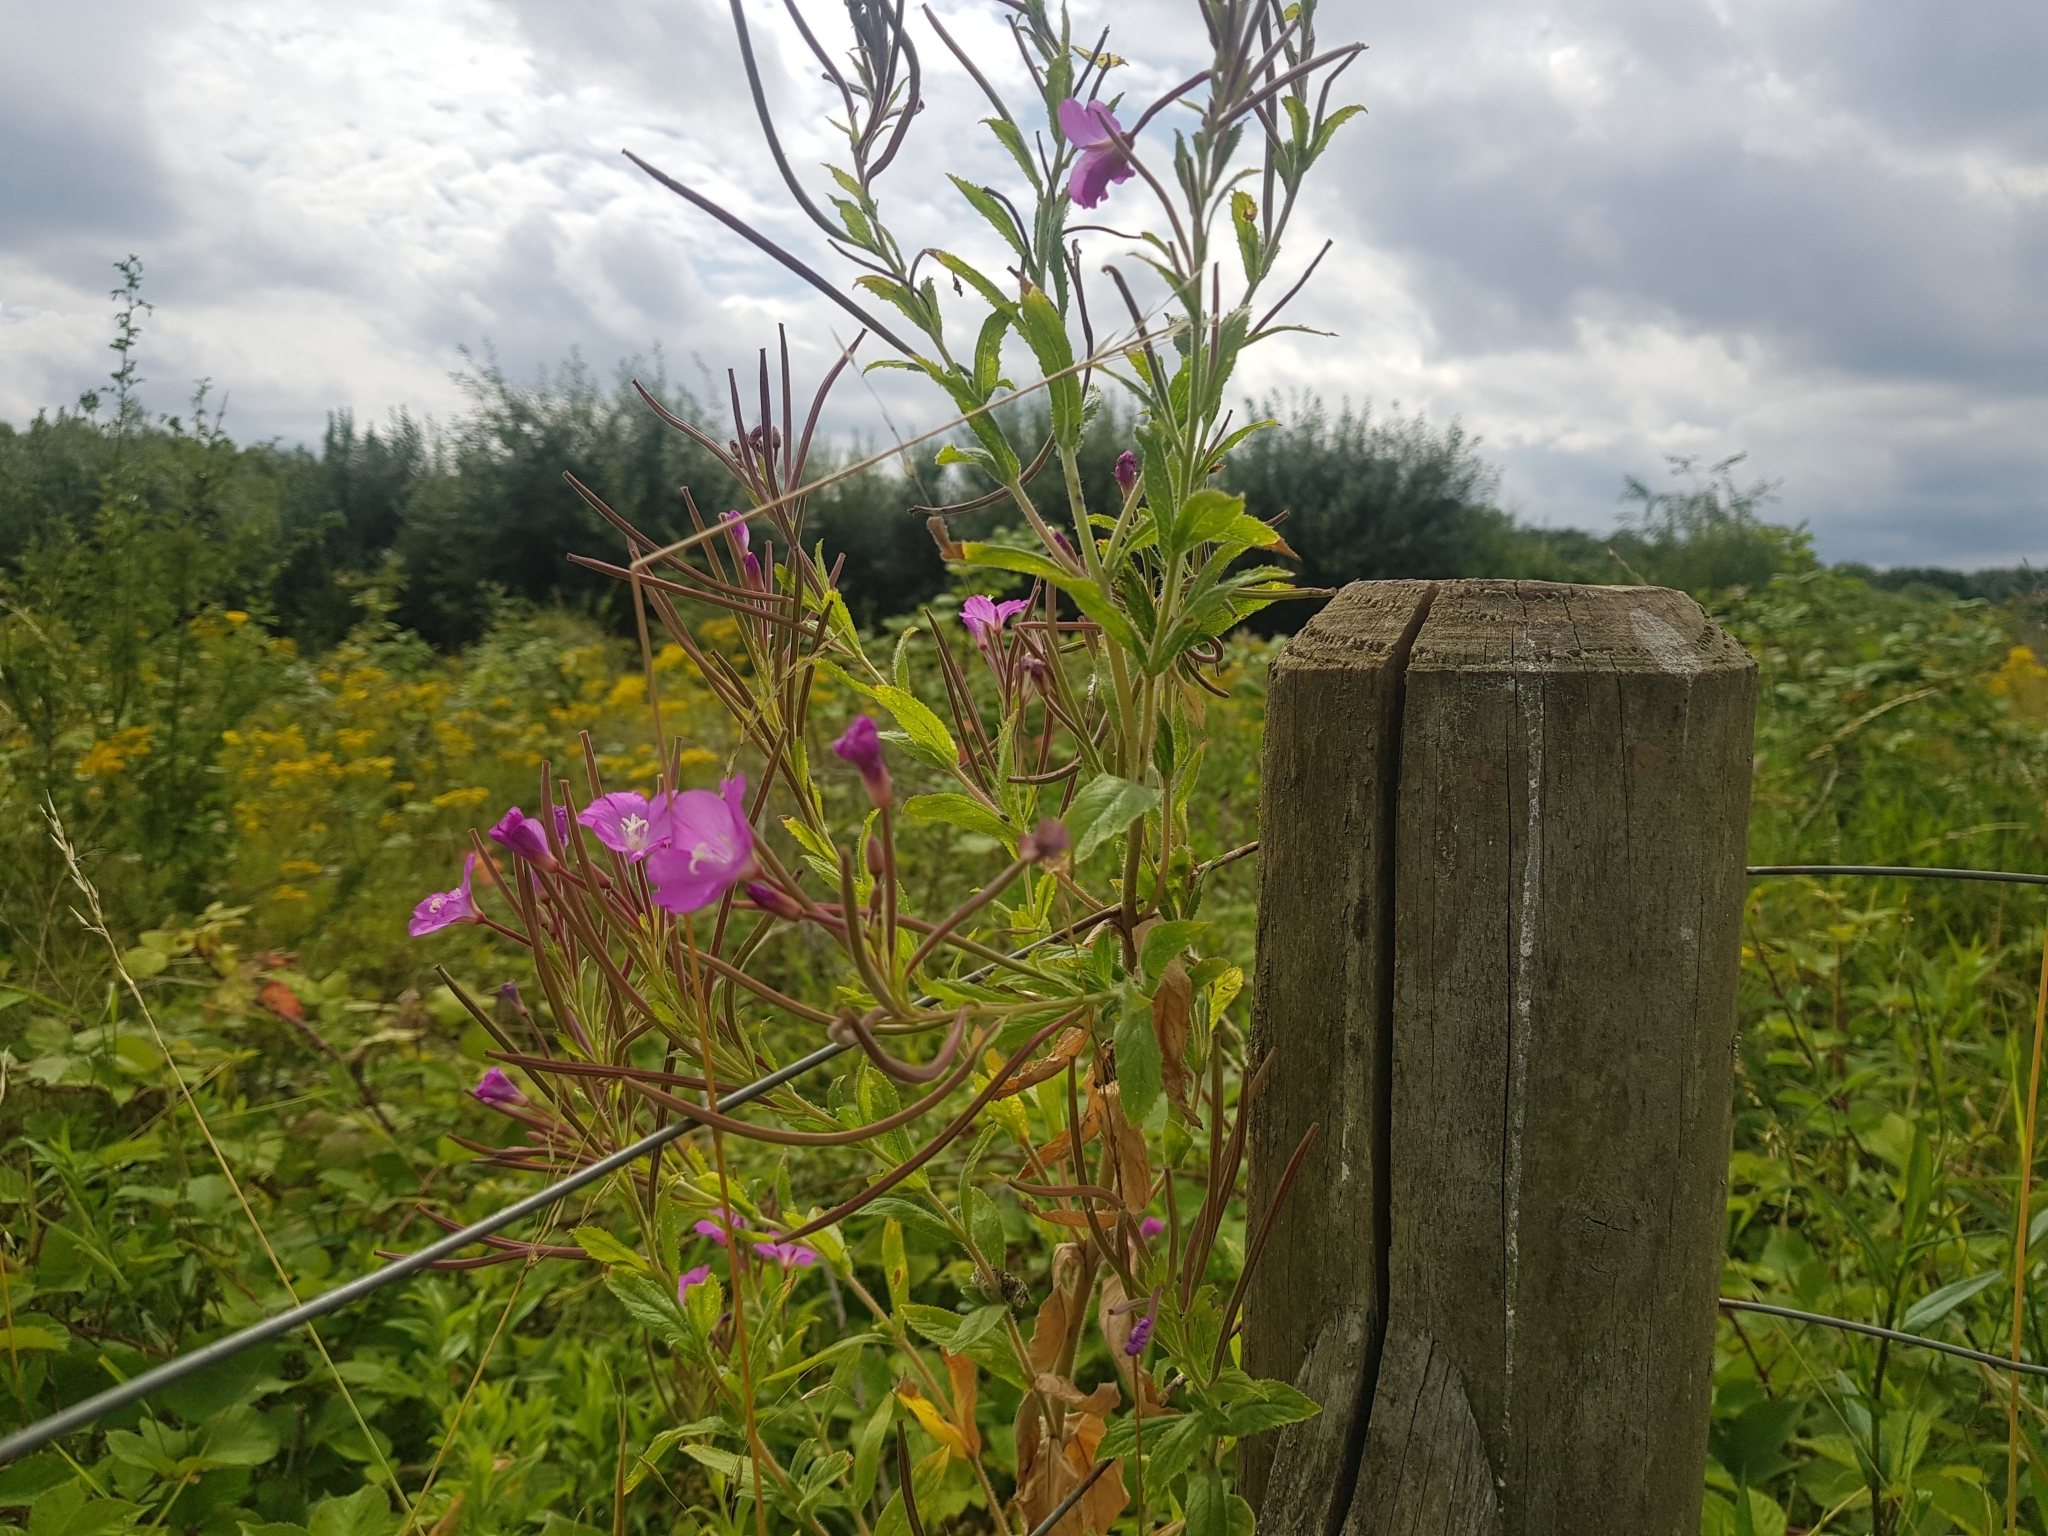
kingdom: Plantae
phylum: Tracheophyta
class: Magnoliopsida
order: Myrtales
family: Onagraceae
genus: Epilobium
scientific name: Epilobium hirsutum
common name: Great willowherb
